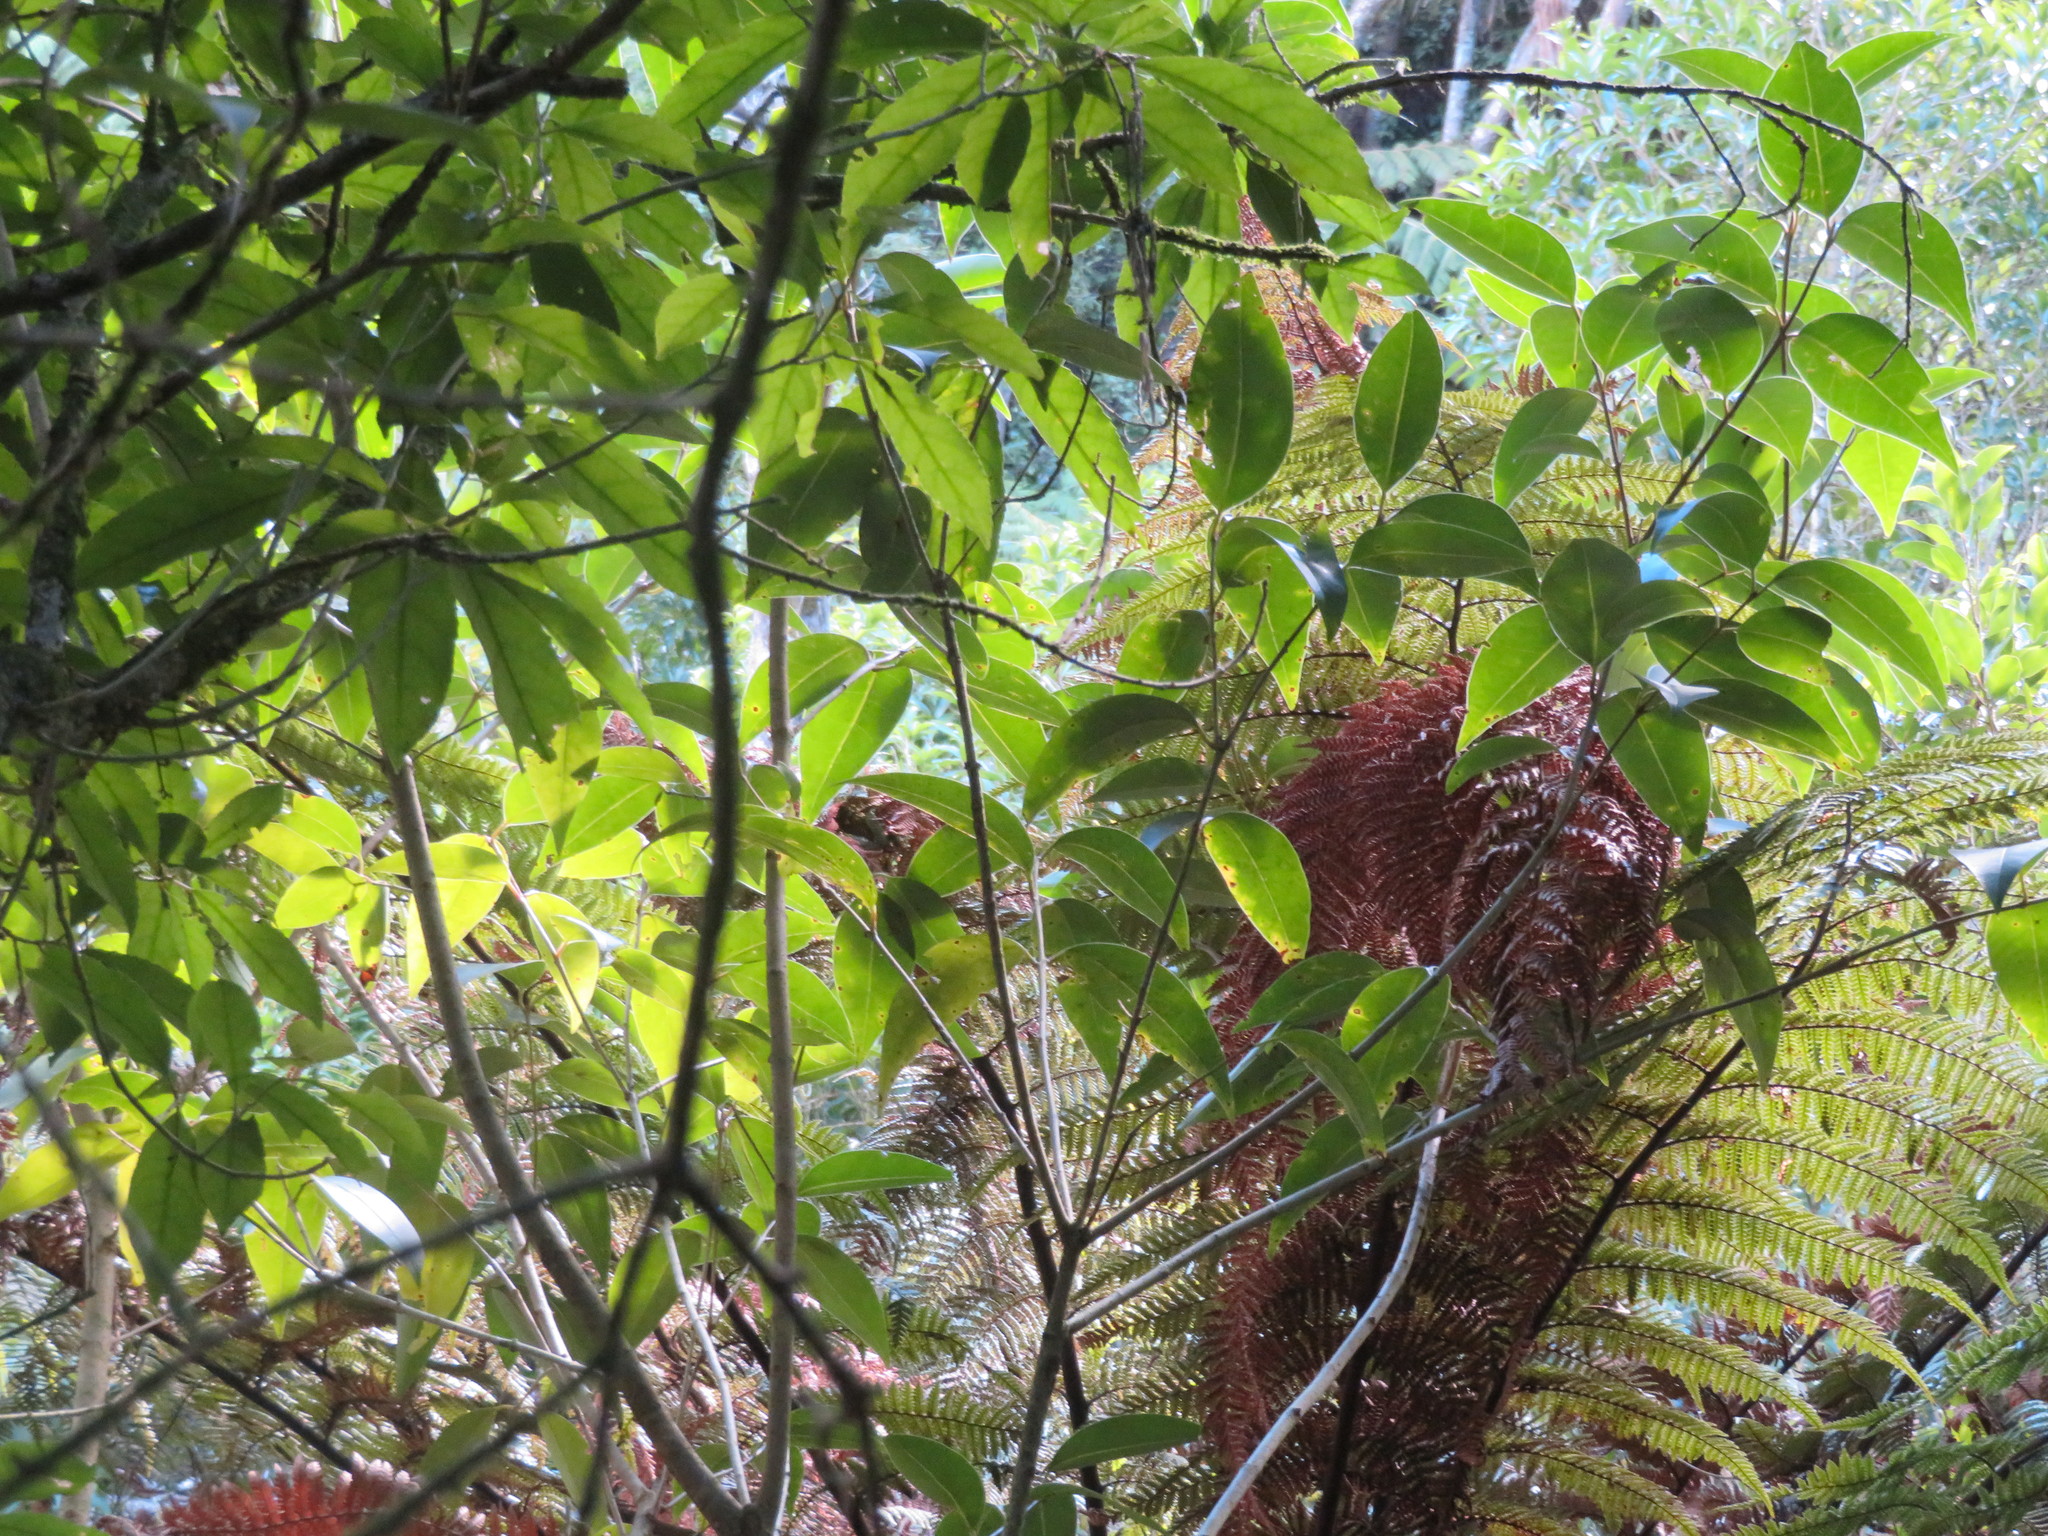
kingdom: Plantae
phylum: Tracheophyta
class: Magnoliopsida
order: Lamiales
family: Oleaceae
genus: Ligustrum
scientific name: Ligustrum lucidum
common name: Glossy privet
